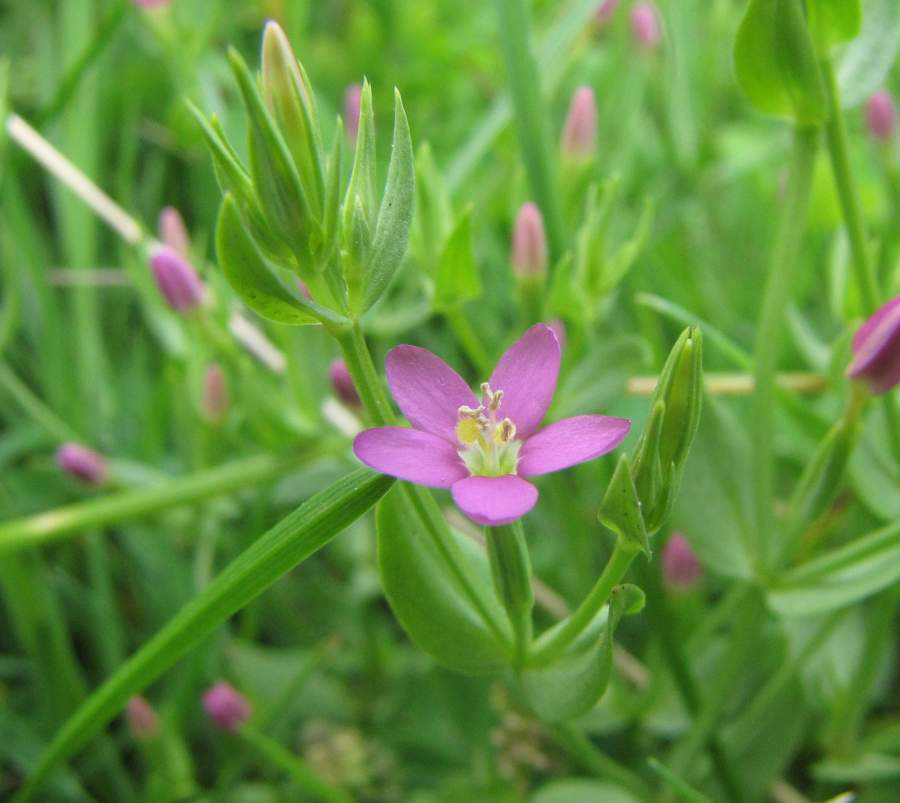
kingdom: Plantae
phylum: Tracheophyta
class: Magnoliopsida
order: Gentianales
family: Gentianaceae
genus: Centaurium
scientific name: Centaurium pulchellum
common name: Lesser centaury
